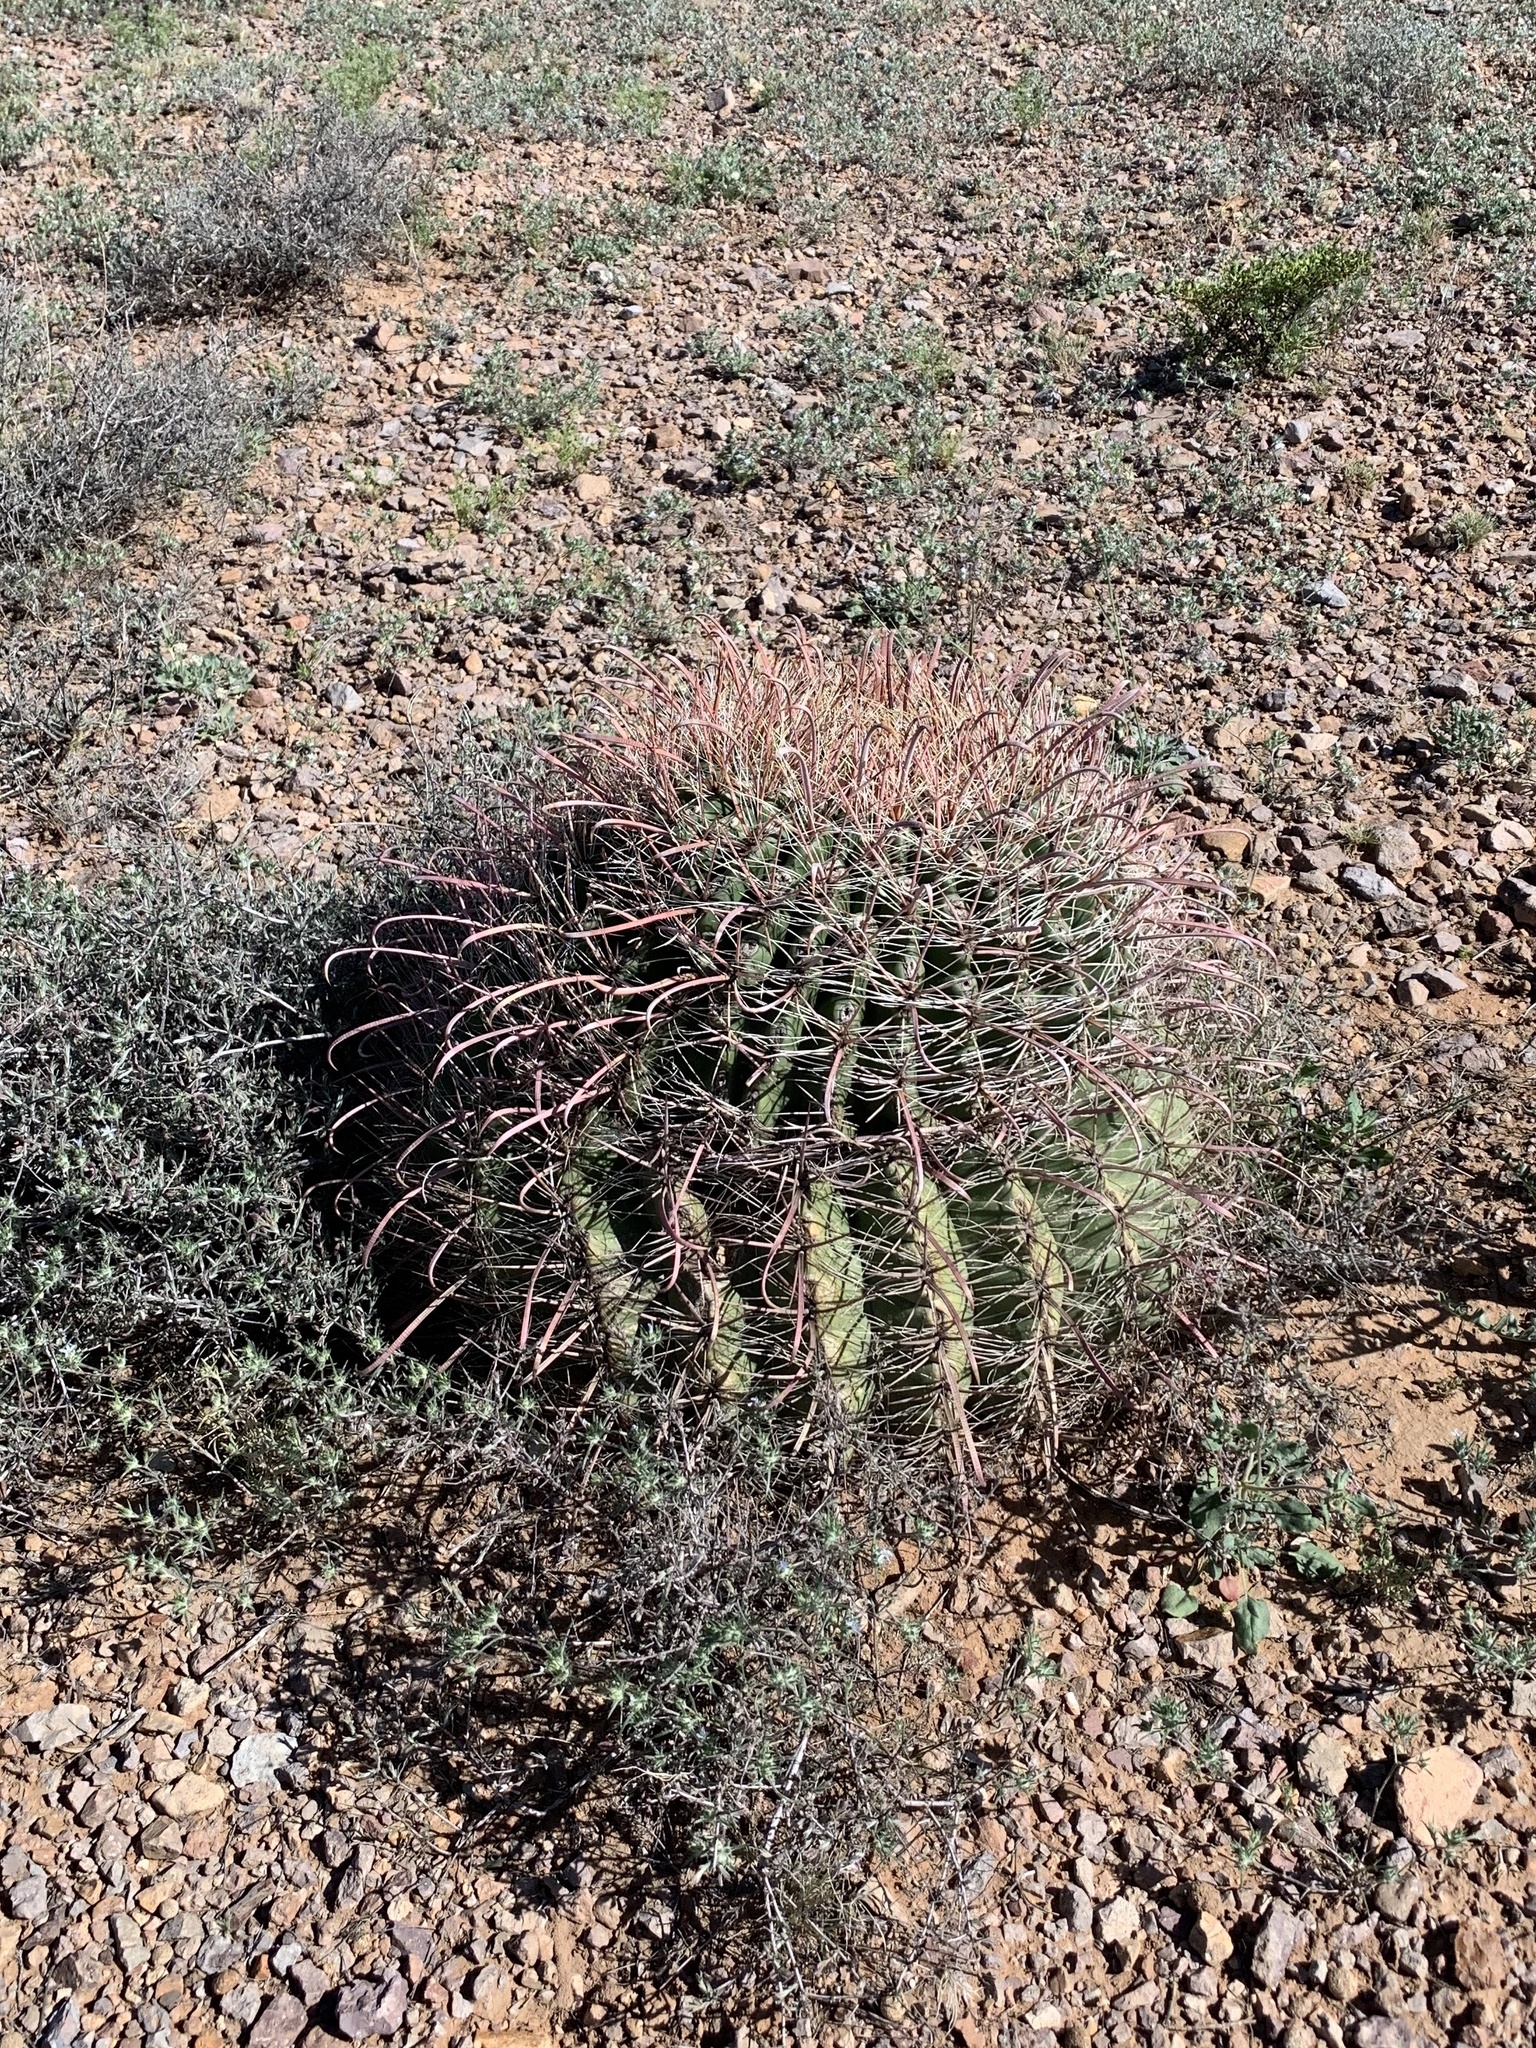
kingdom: Plantae
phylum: Tracheophyta
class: Magnoliopsida
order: Caryophyllales
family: Cactaceae
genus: Ferocactus
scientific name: Ferocactus wislizeni
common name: Candy barrel cactus
